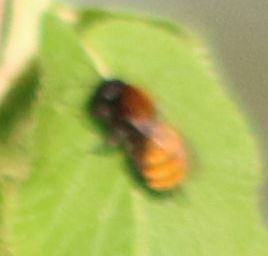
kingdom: Animalia
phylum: Arthropoda
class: Insecta
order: Hymenoptera
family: Andrenidae
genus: Andrena
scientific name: Andrena fulva
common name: Tawny mining bee
